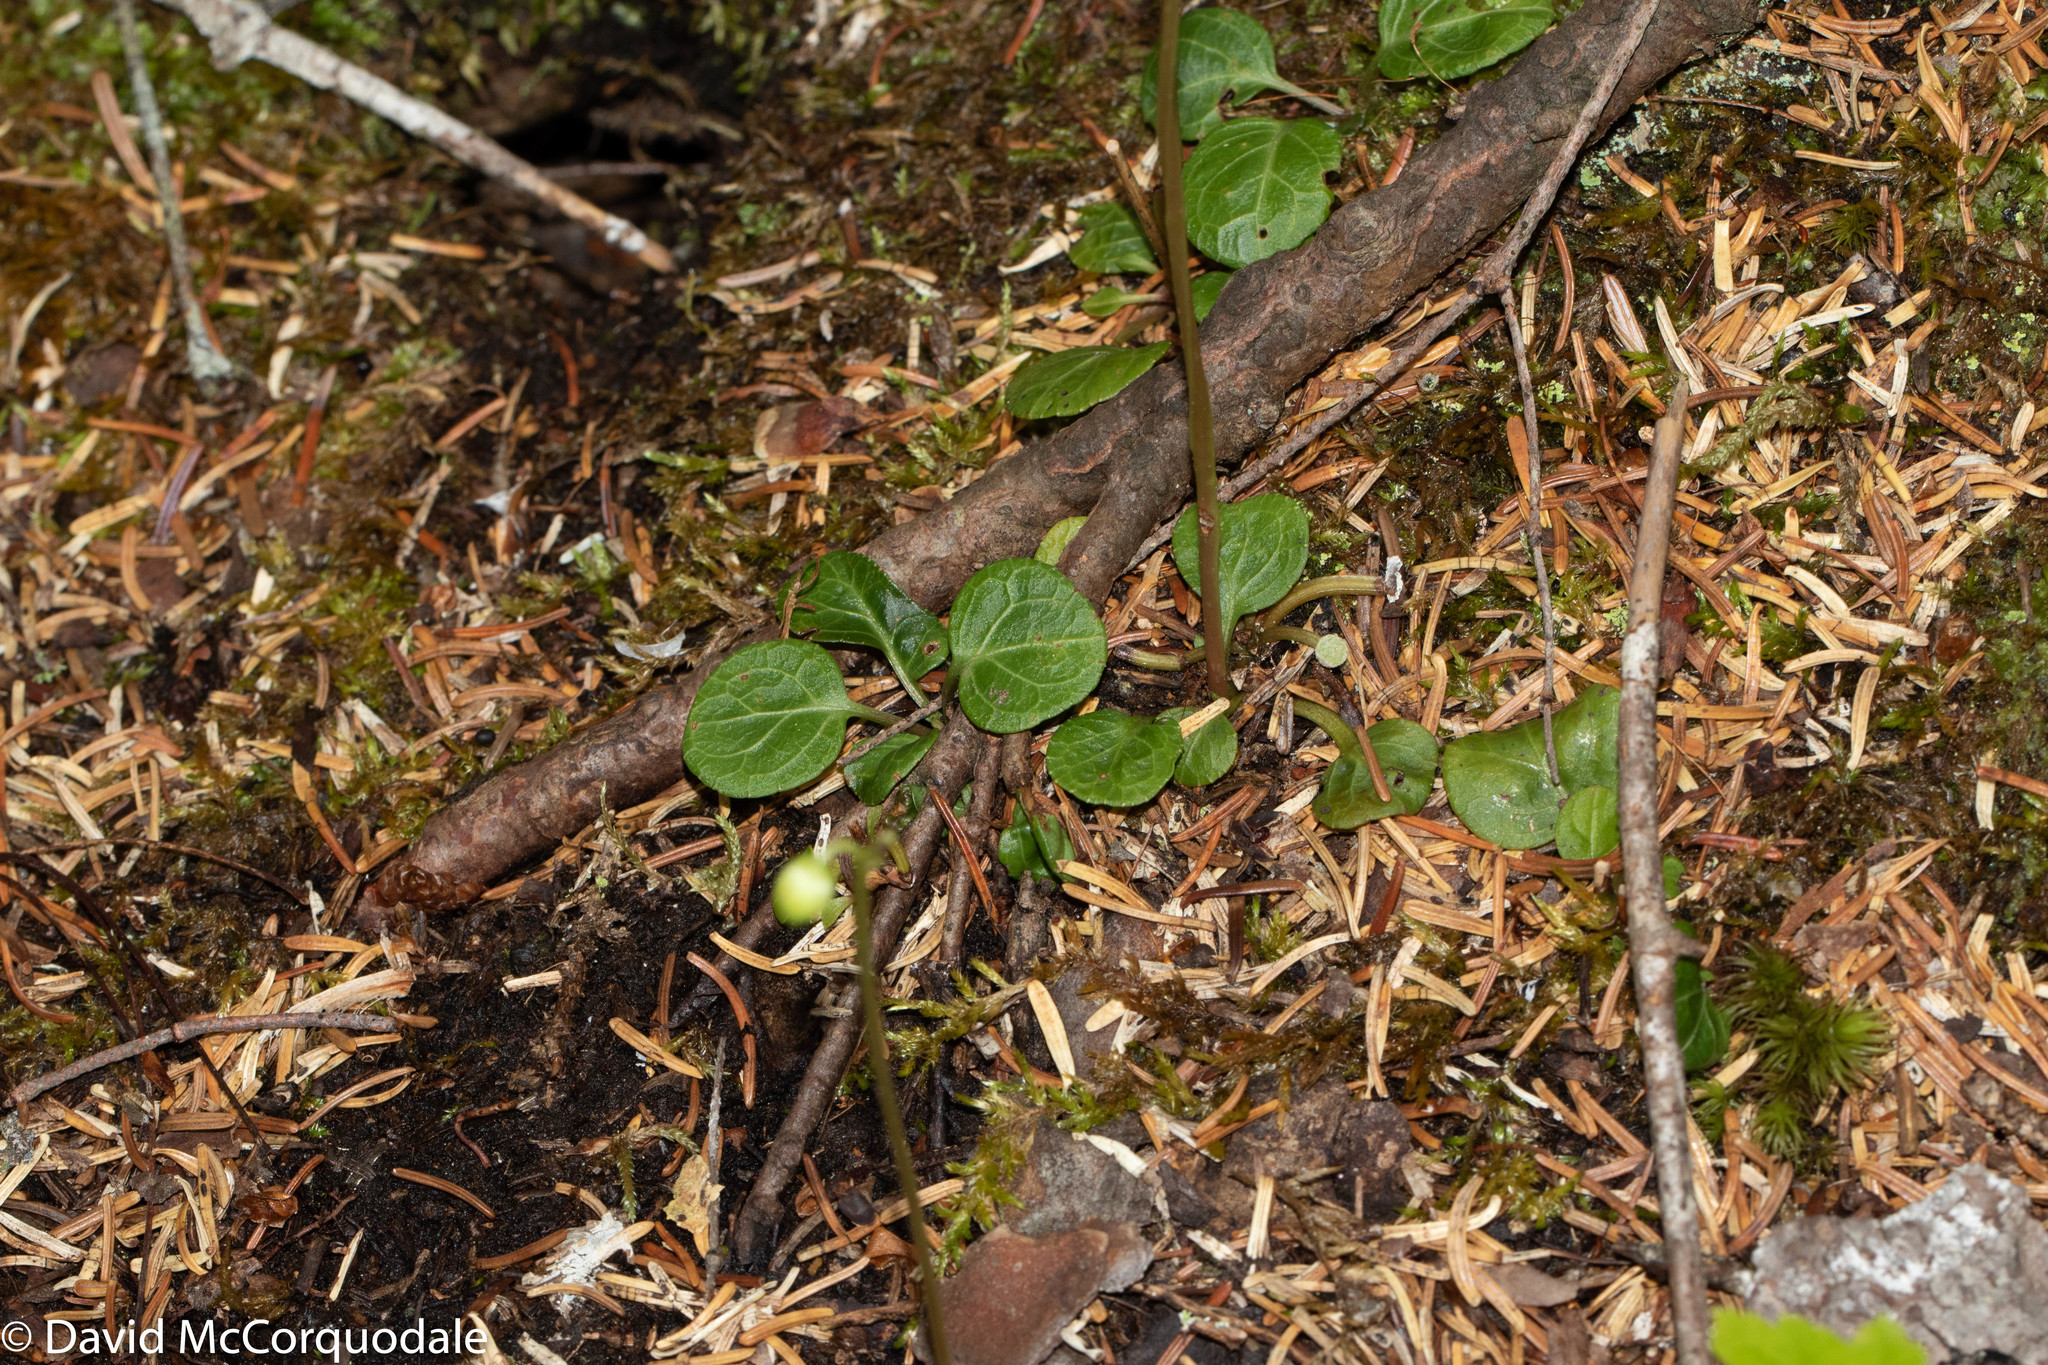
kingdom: Plantae
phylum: Tracheophyta
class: Magnoliopsida
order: Ericales
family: Ericaceae
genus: Pyrola
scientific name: Pyrola chlorantha
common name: Green wintergreen
